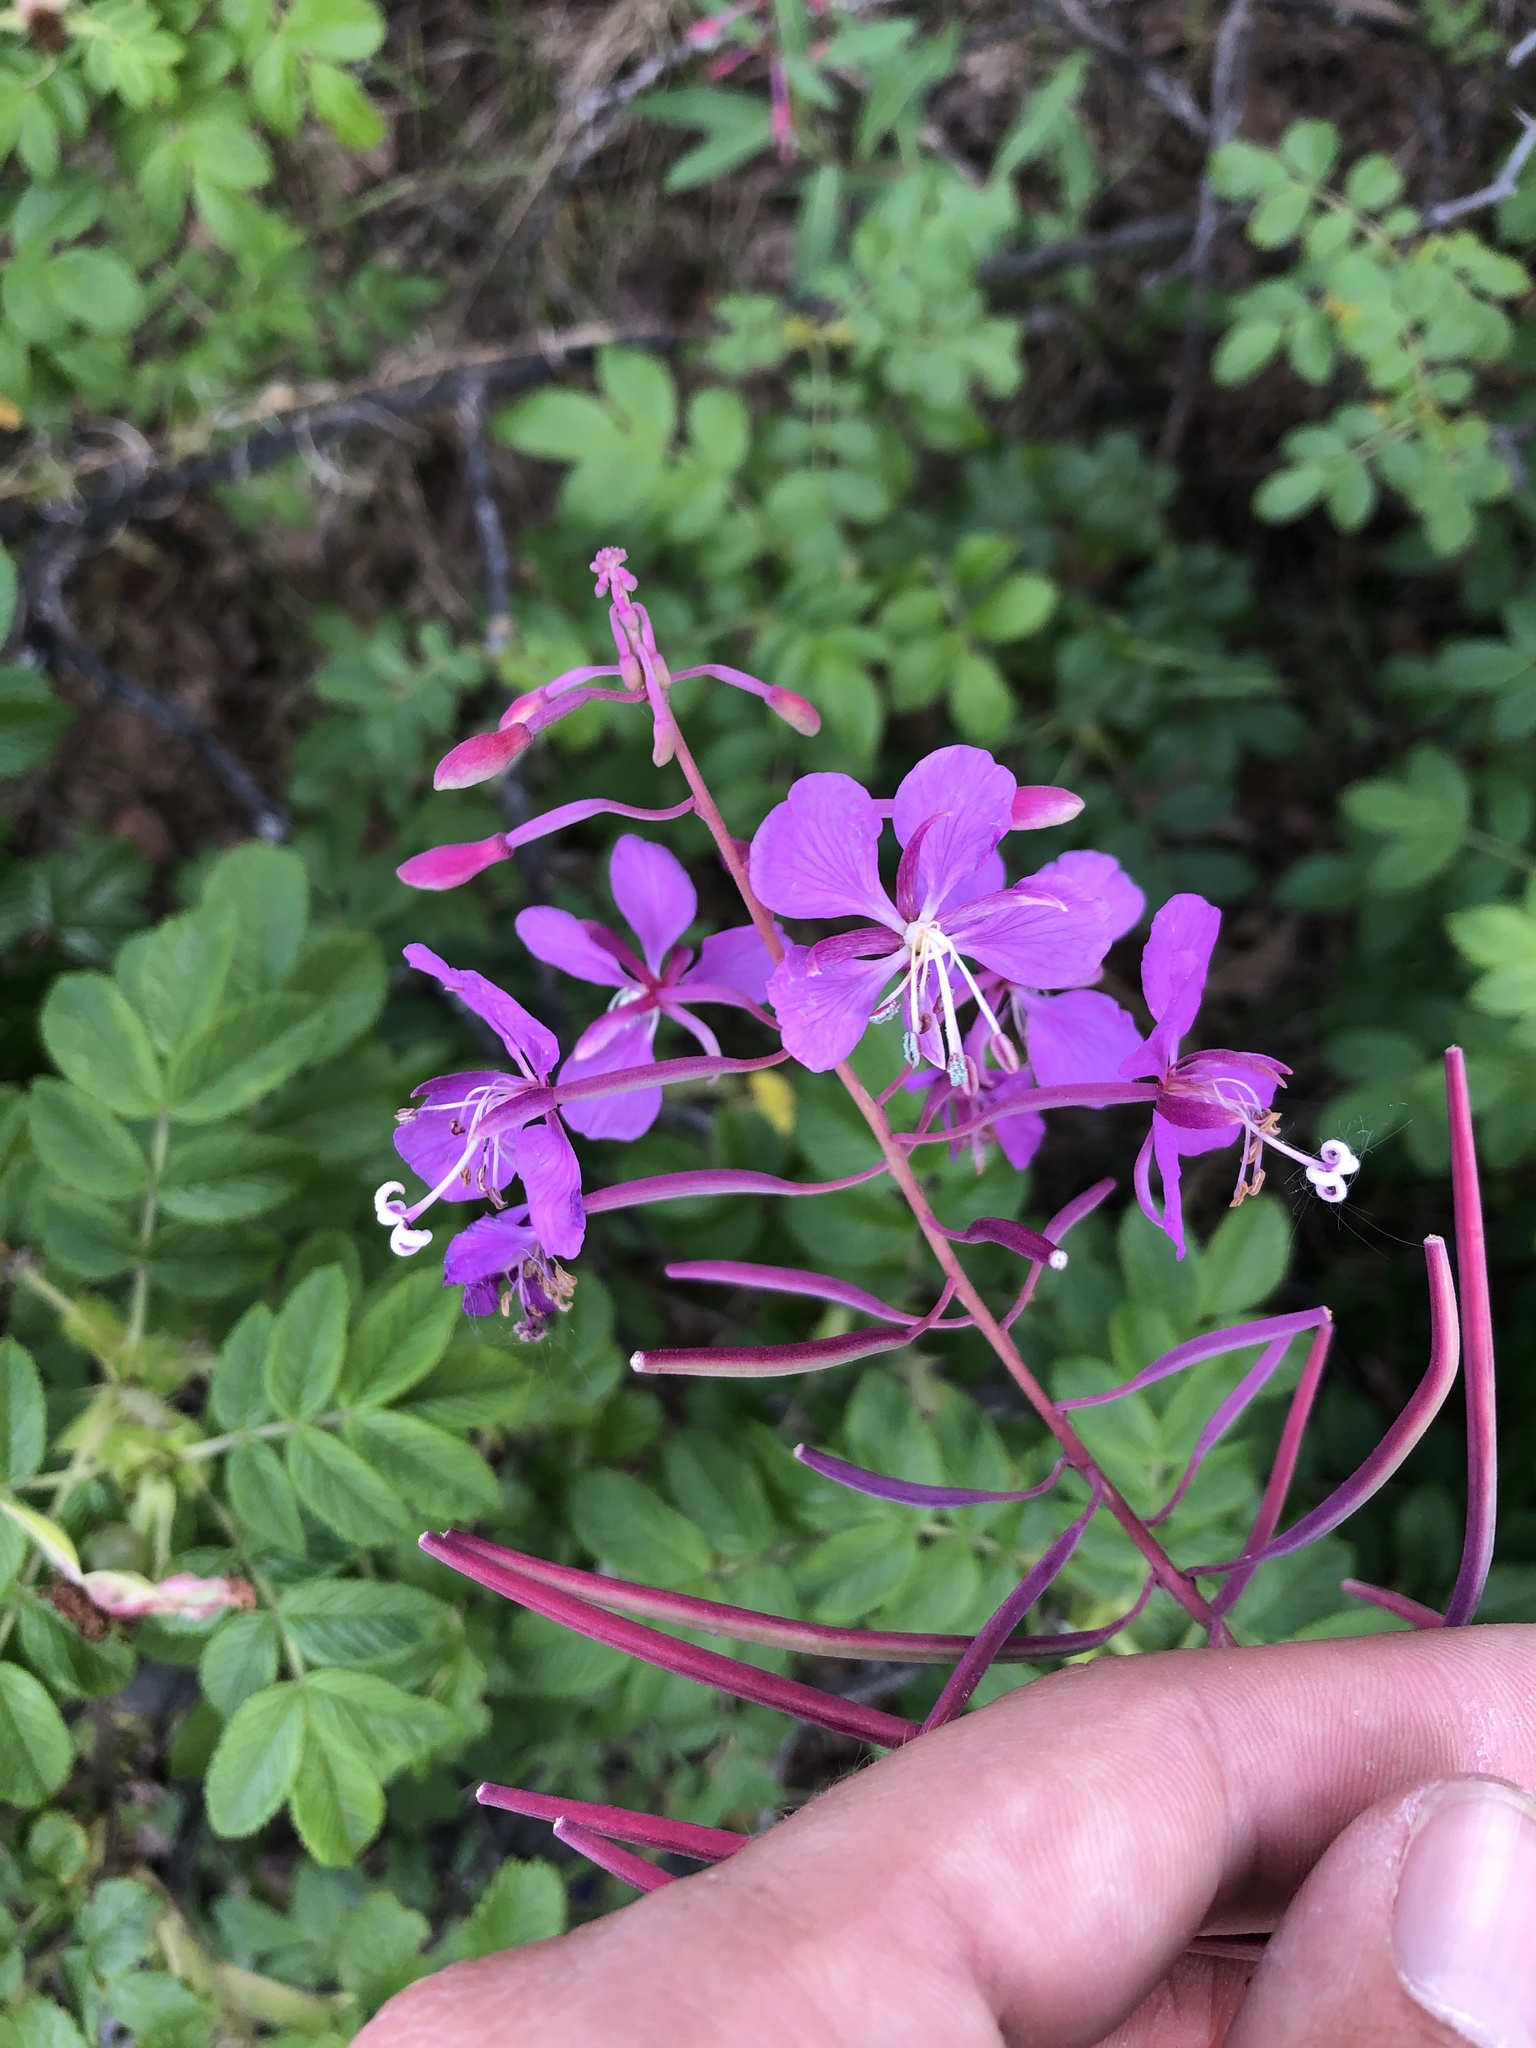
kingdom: Plantae
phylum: Tracheophyta
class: Magnoliopsida
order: Myrtales
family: Onagraceae
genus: Chamaenerion
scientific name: Chamaenerion angustifolium
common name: Fireweed
